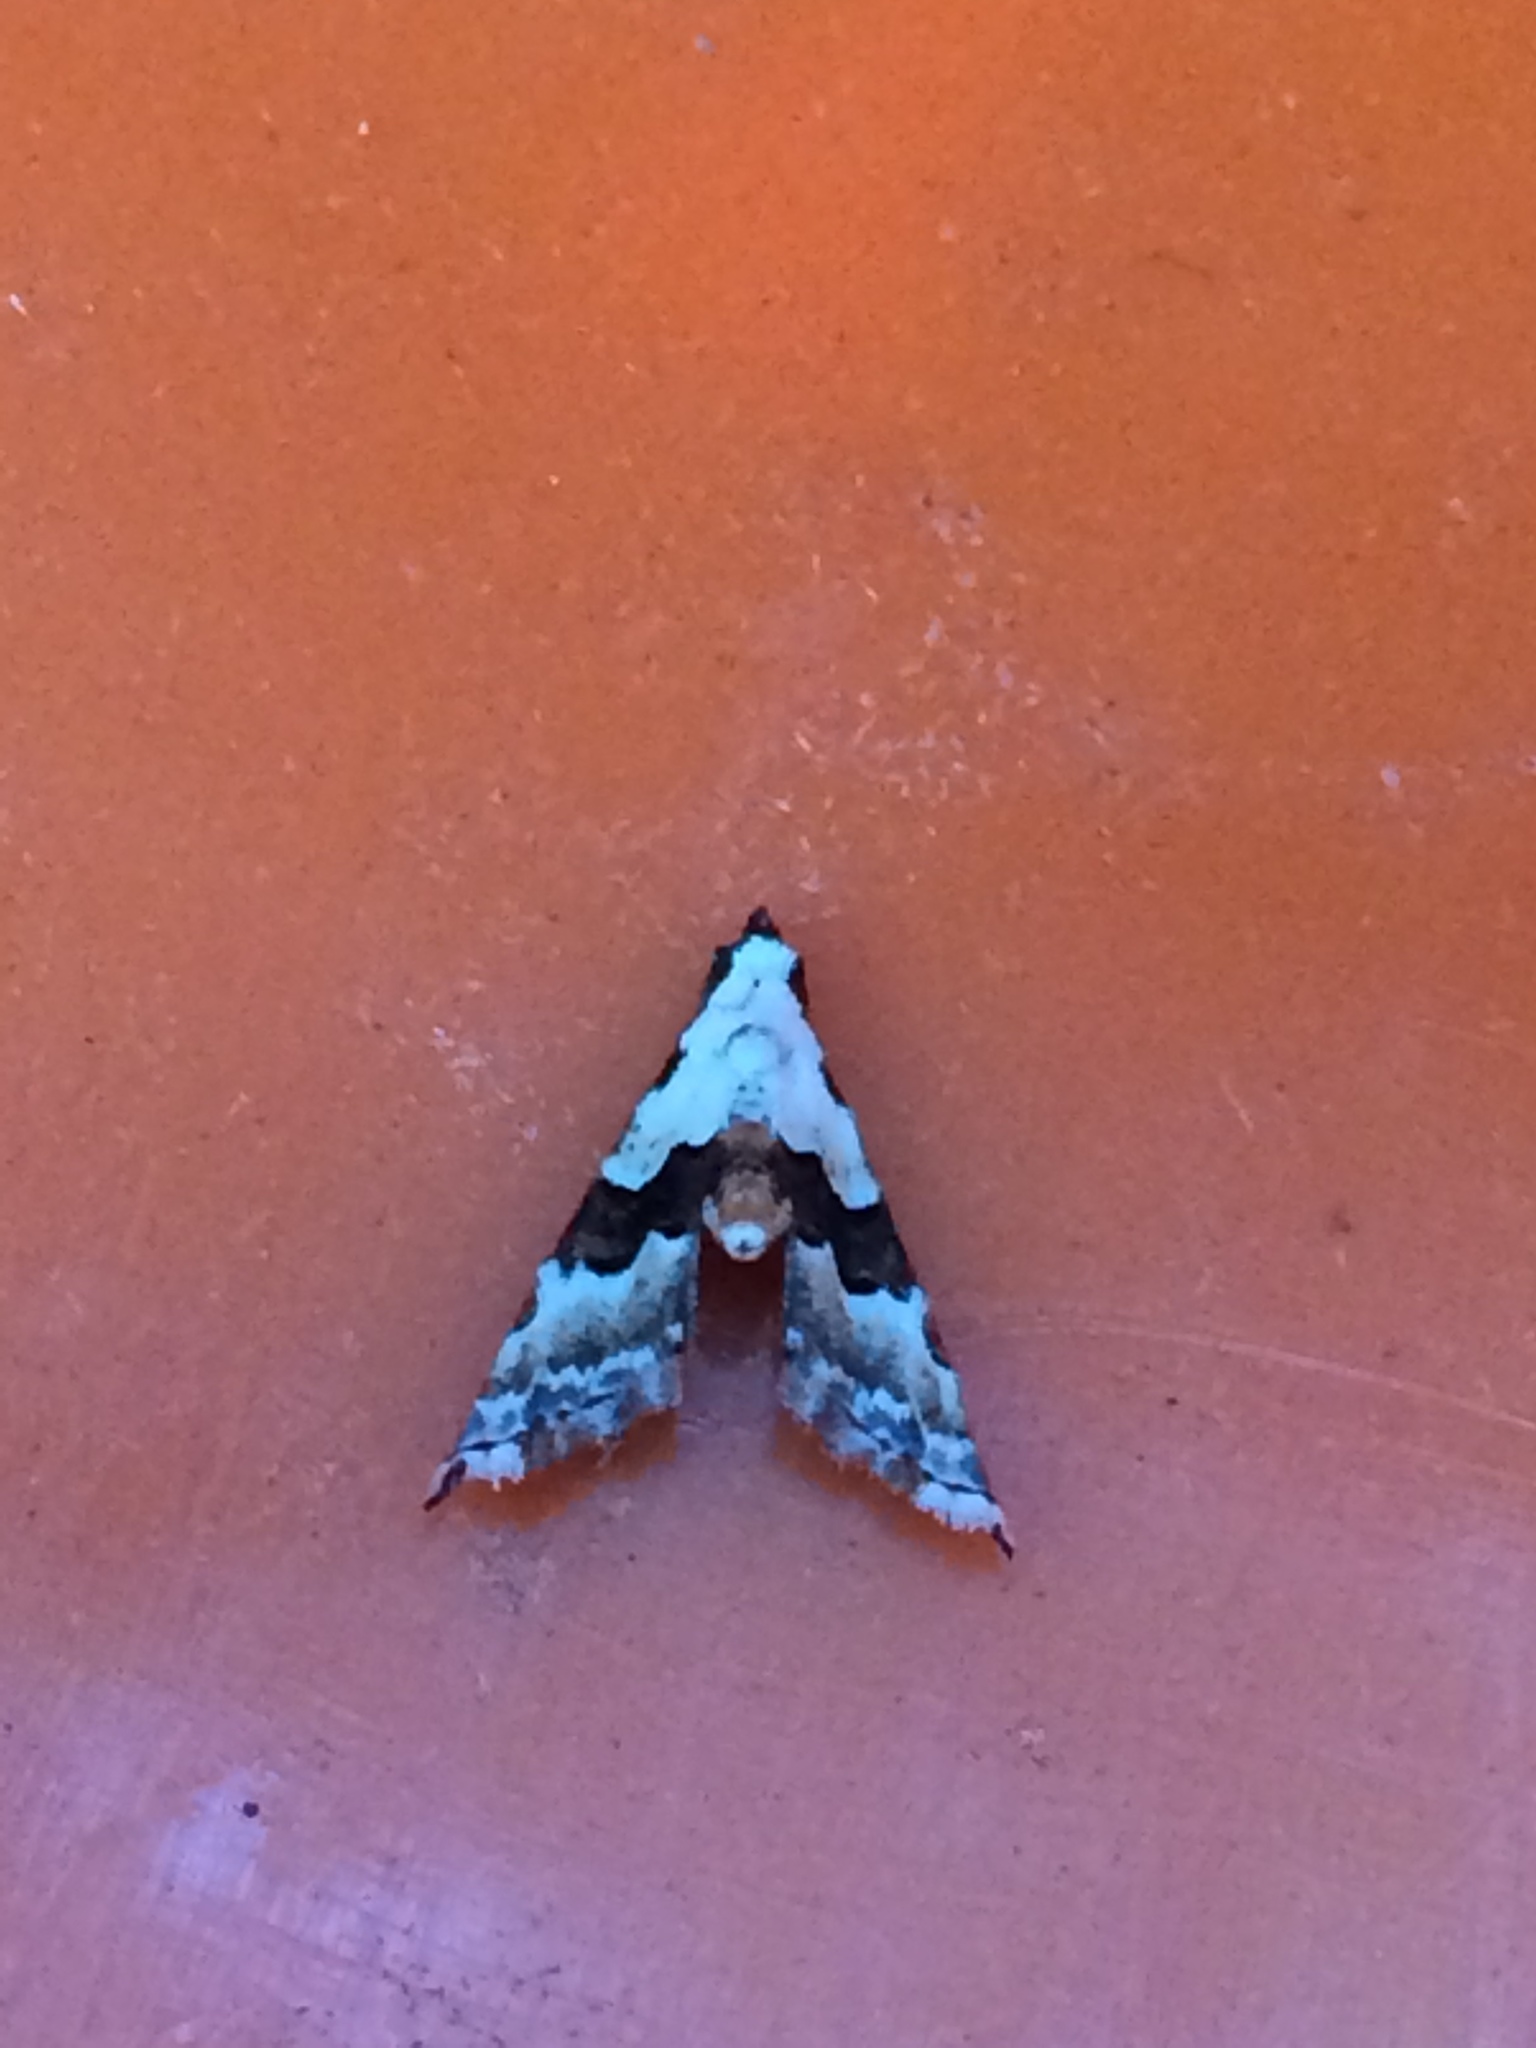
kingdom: Animalia
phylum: Arthropoda
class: Insecta
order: Lepidoptera
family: Noctuidae
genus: Nigetia
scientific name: Nigetia formosalis
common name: Thin-winged owlet
